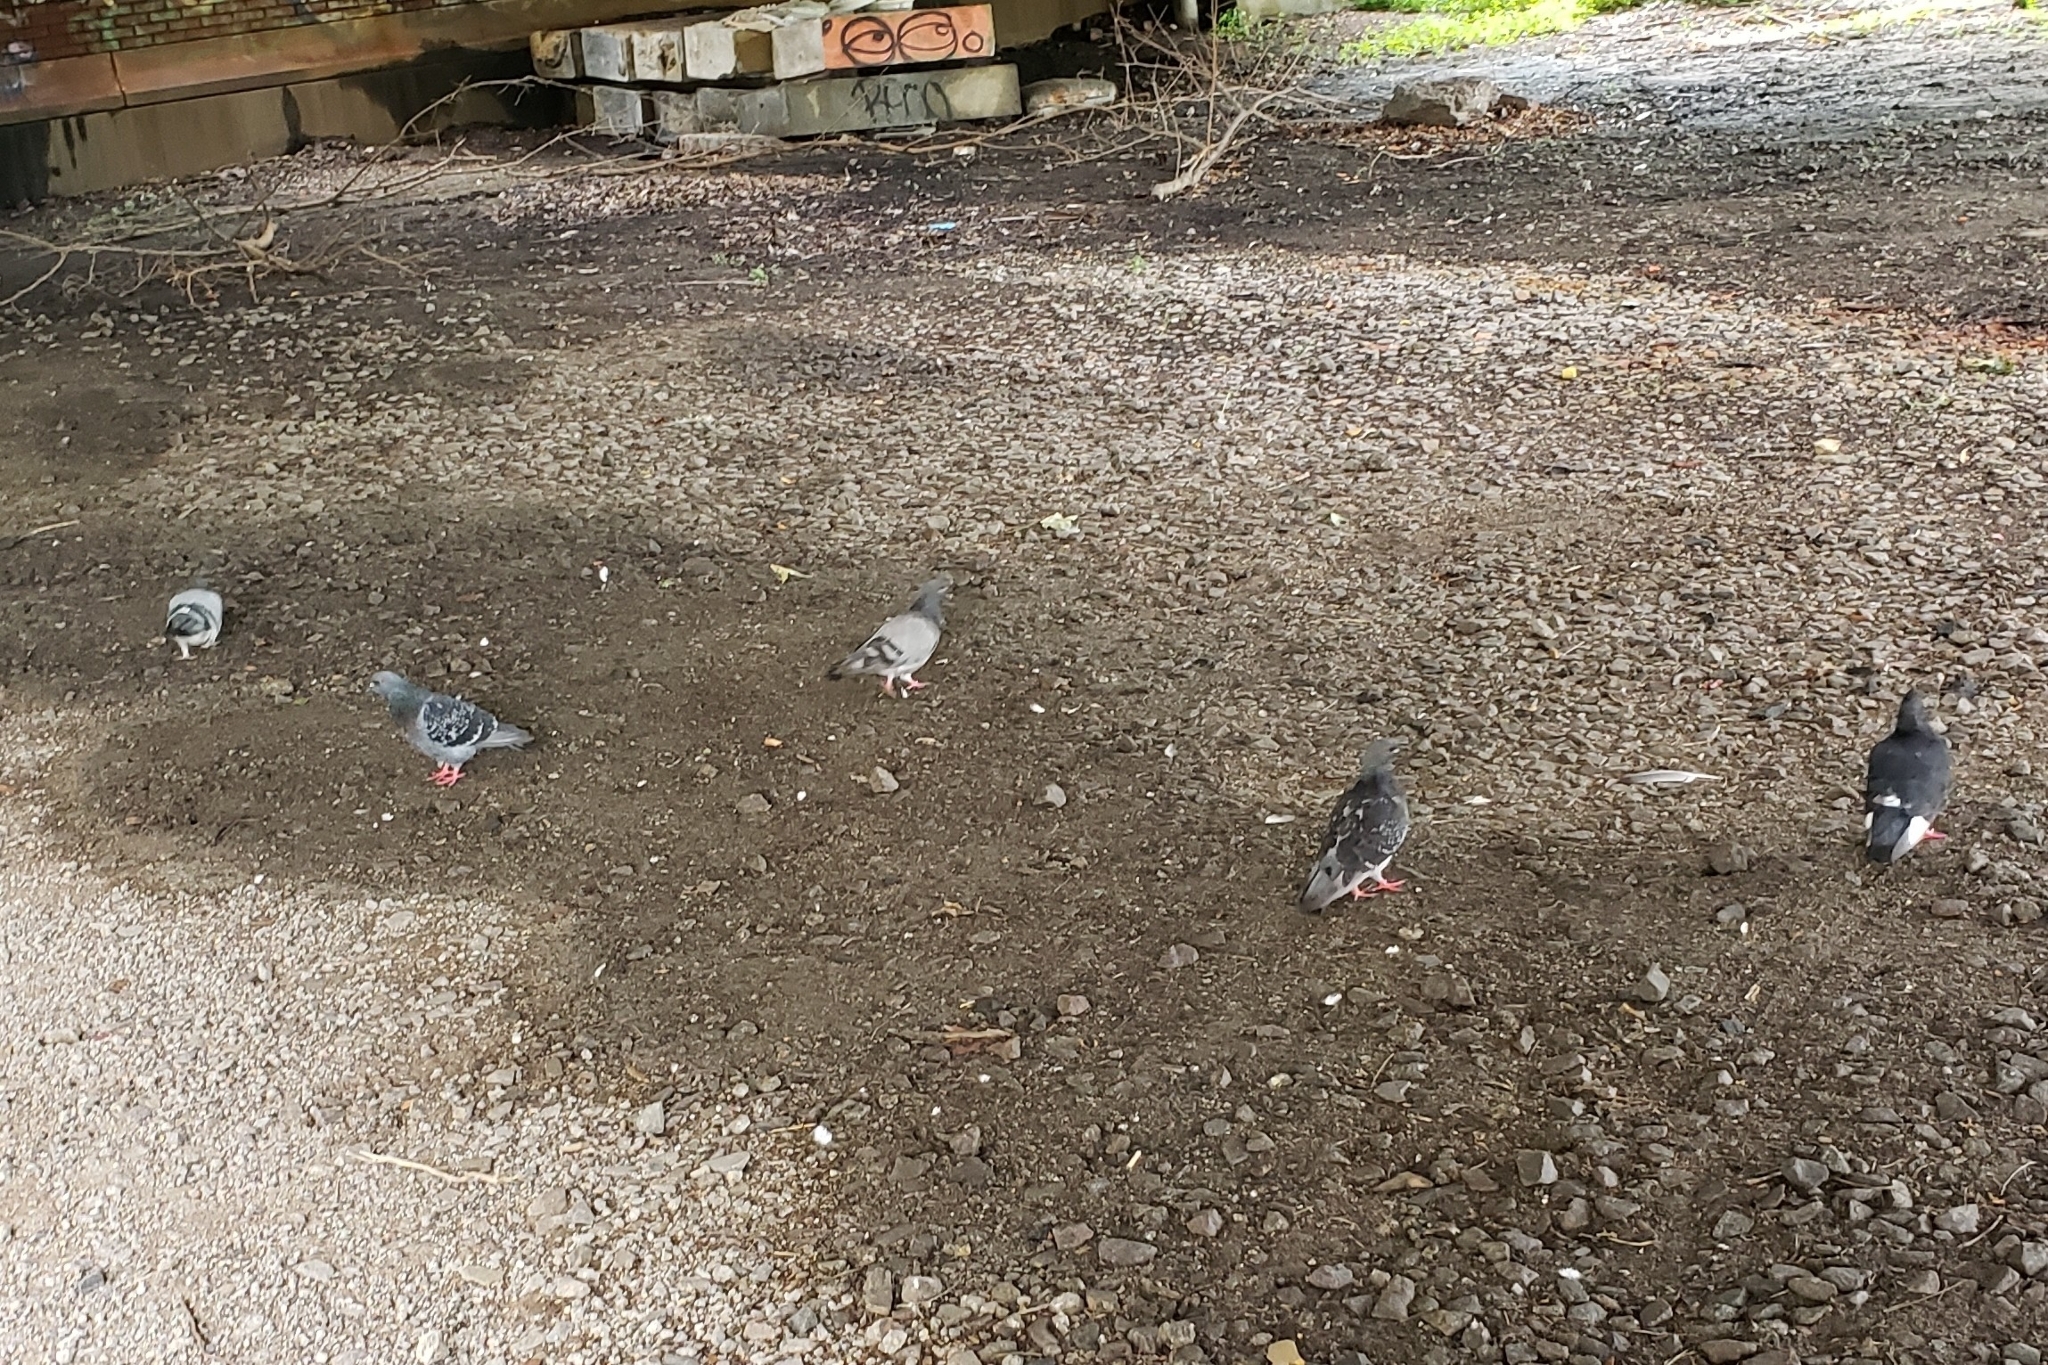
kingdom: Animalia
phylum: Chordata
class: Aves
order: Columbiformes
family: Columbidae
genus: Columba
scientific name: Columba livia
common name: Rock pigeon
